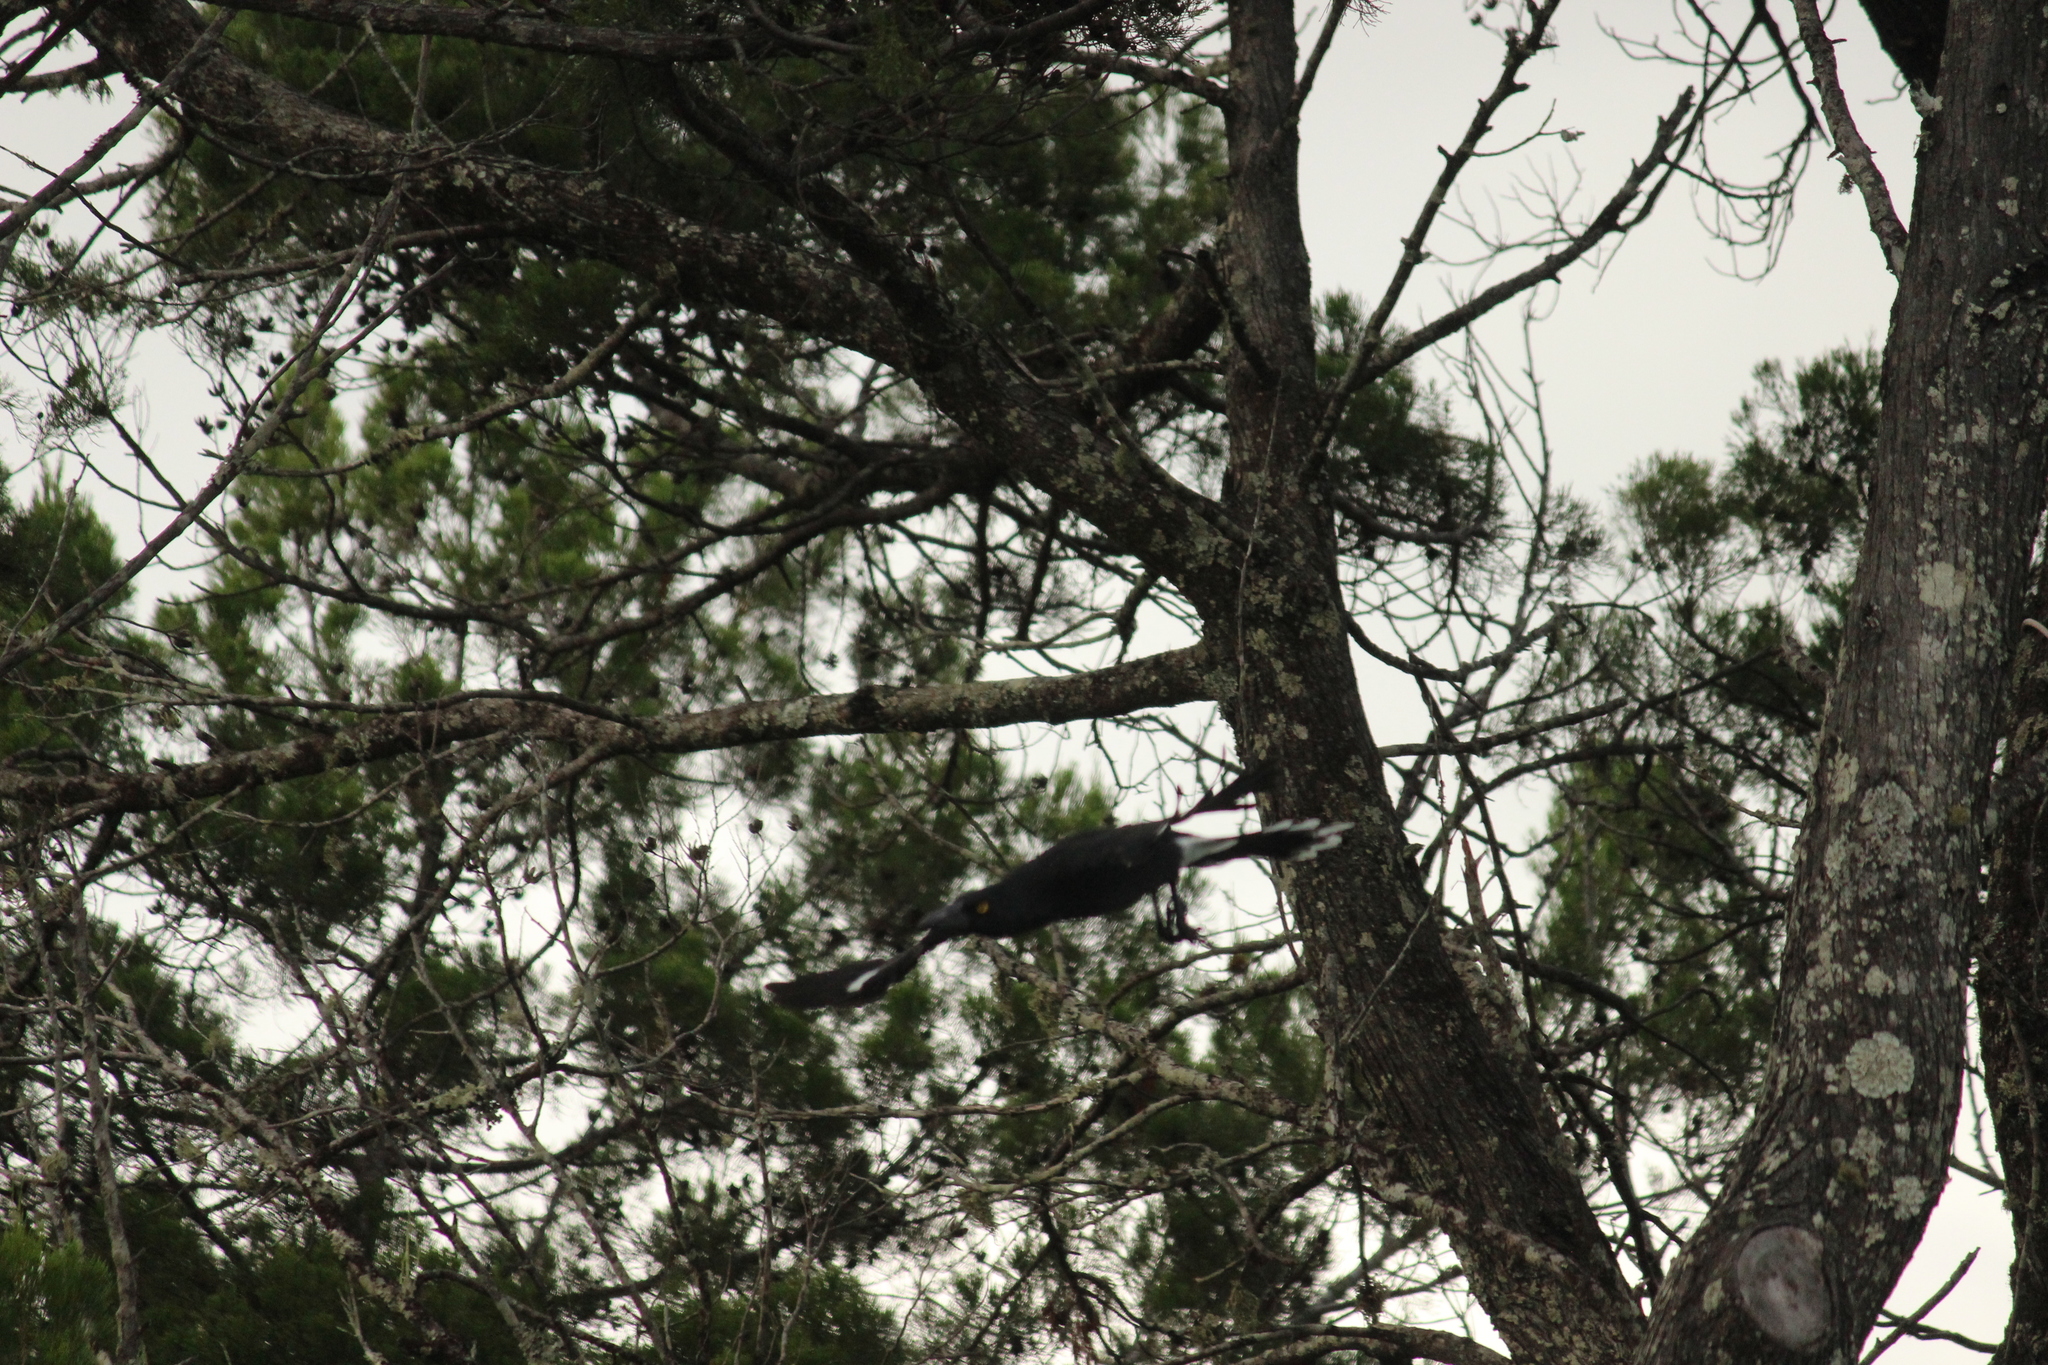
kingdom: Animalia
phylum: Chordata
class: Aves
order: Passeriformes
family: Cracticidae
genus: Strepera
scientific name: Strepera graculina
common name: Pied currawong
